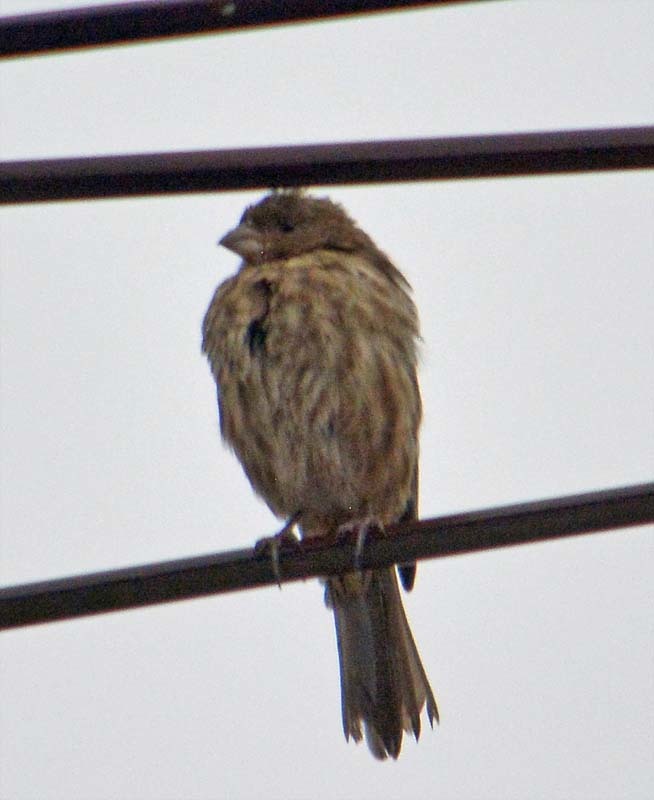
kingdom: Animalia
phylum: Chordata
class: Aves
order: Passeriformes
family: Fringillidae
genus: Haemorhous
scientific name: Haemorhous mexicanus
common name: House finch
